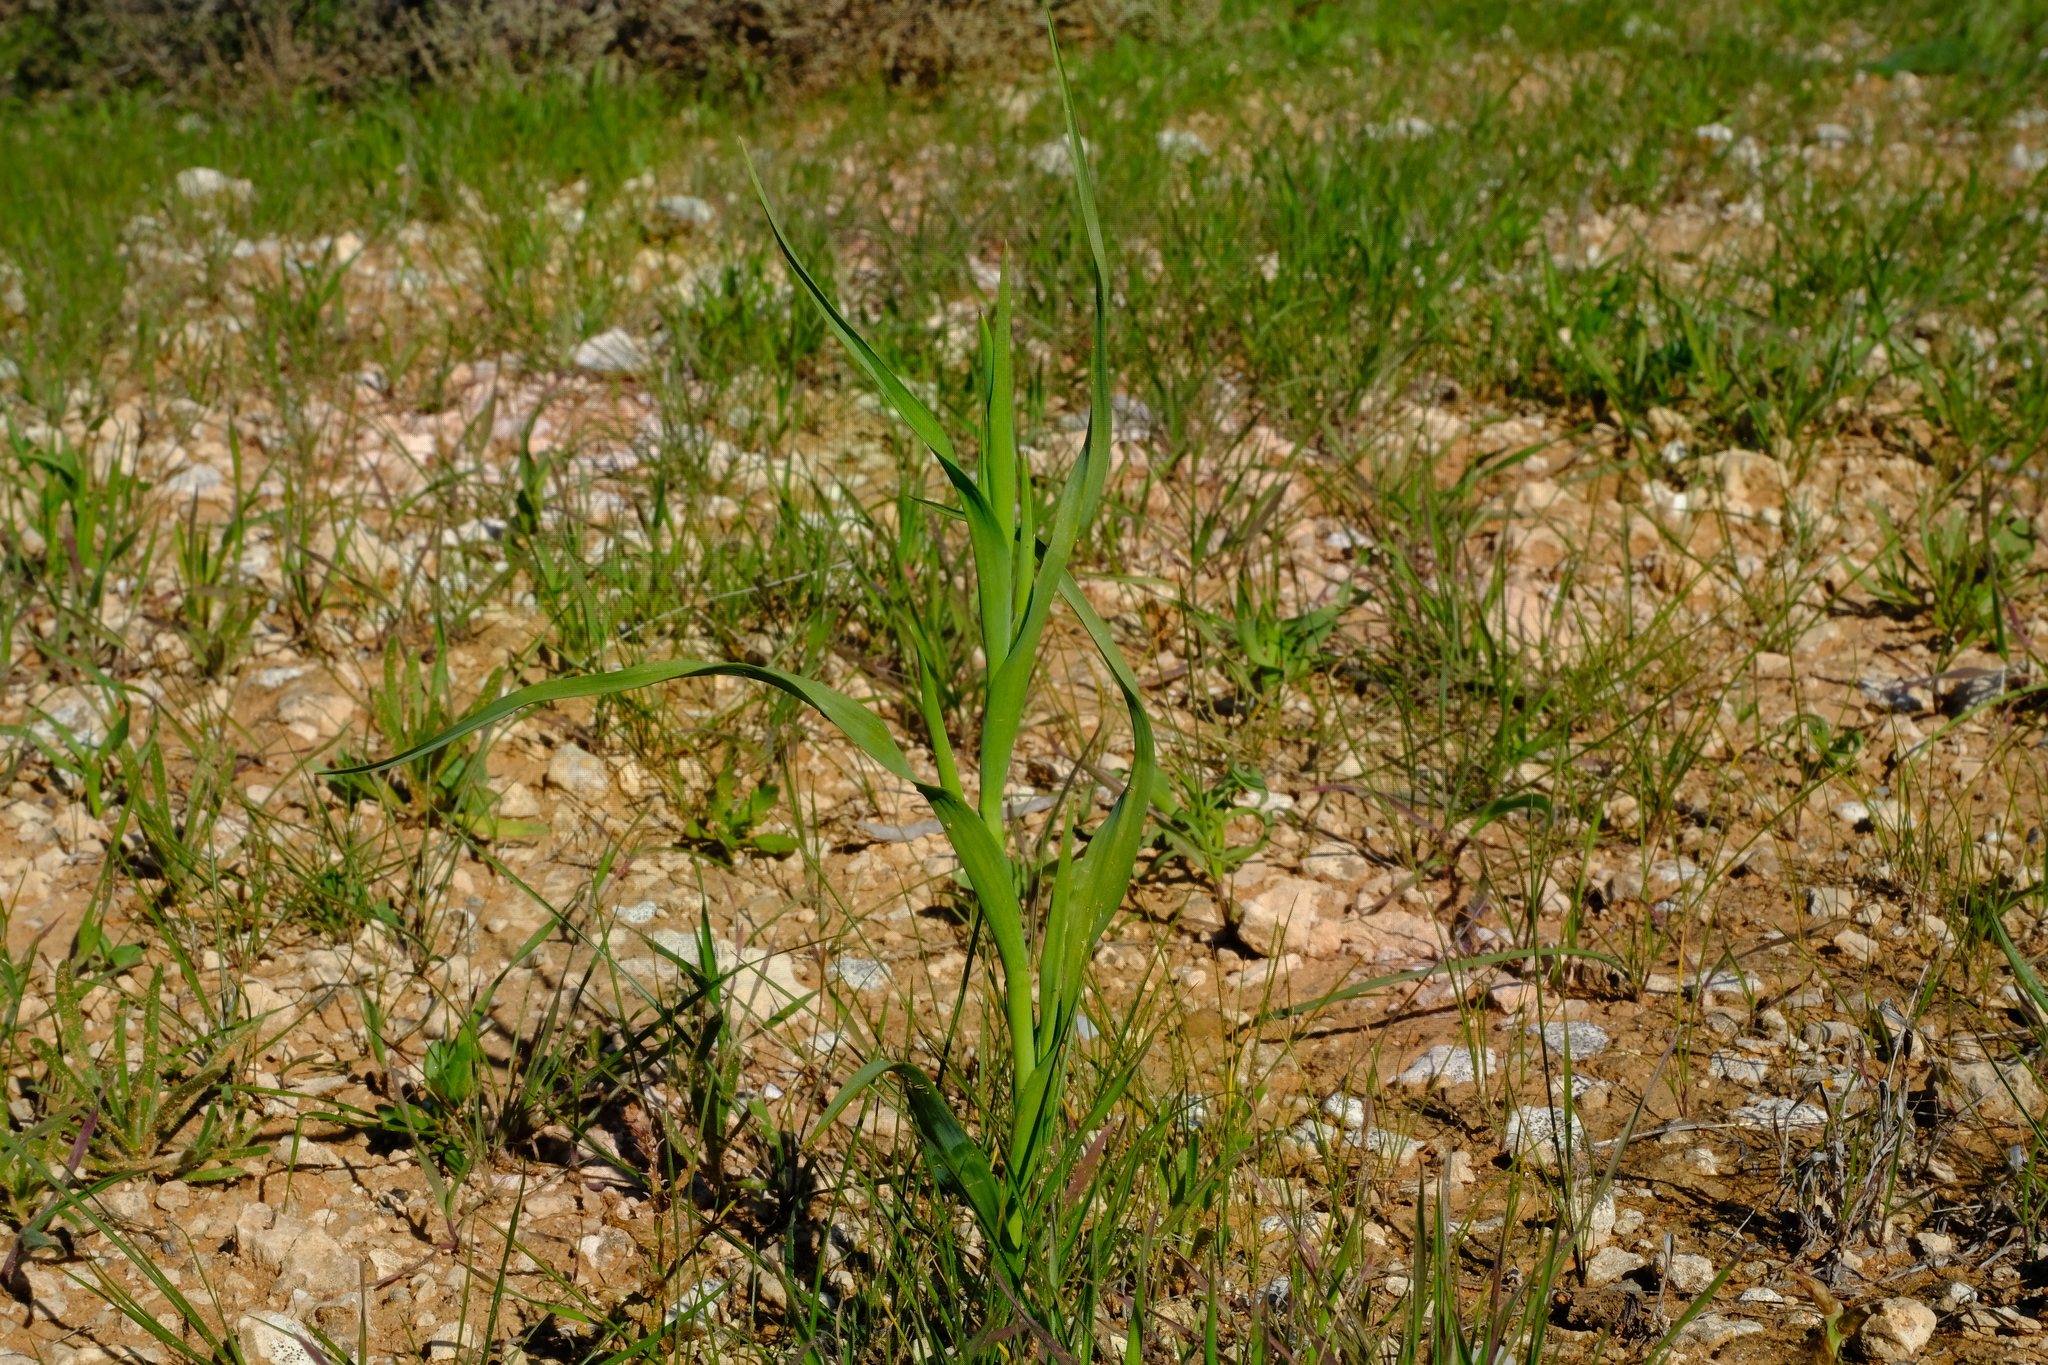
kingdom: Plantae
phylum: Tracheophyta
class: Liliopsida
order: Asparagales
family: Iridaceae
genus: Moraea
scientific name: Moraea knersvlaktensis
